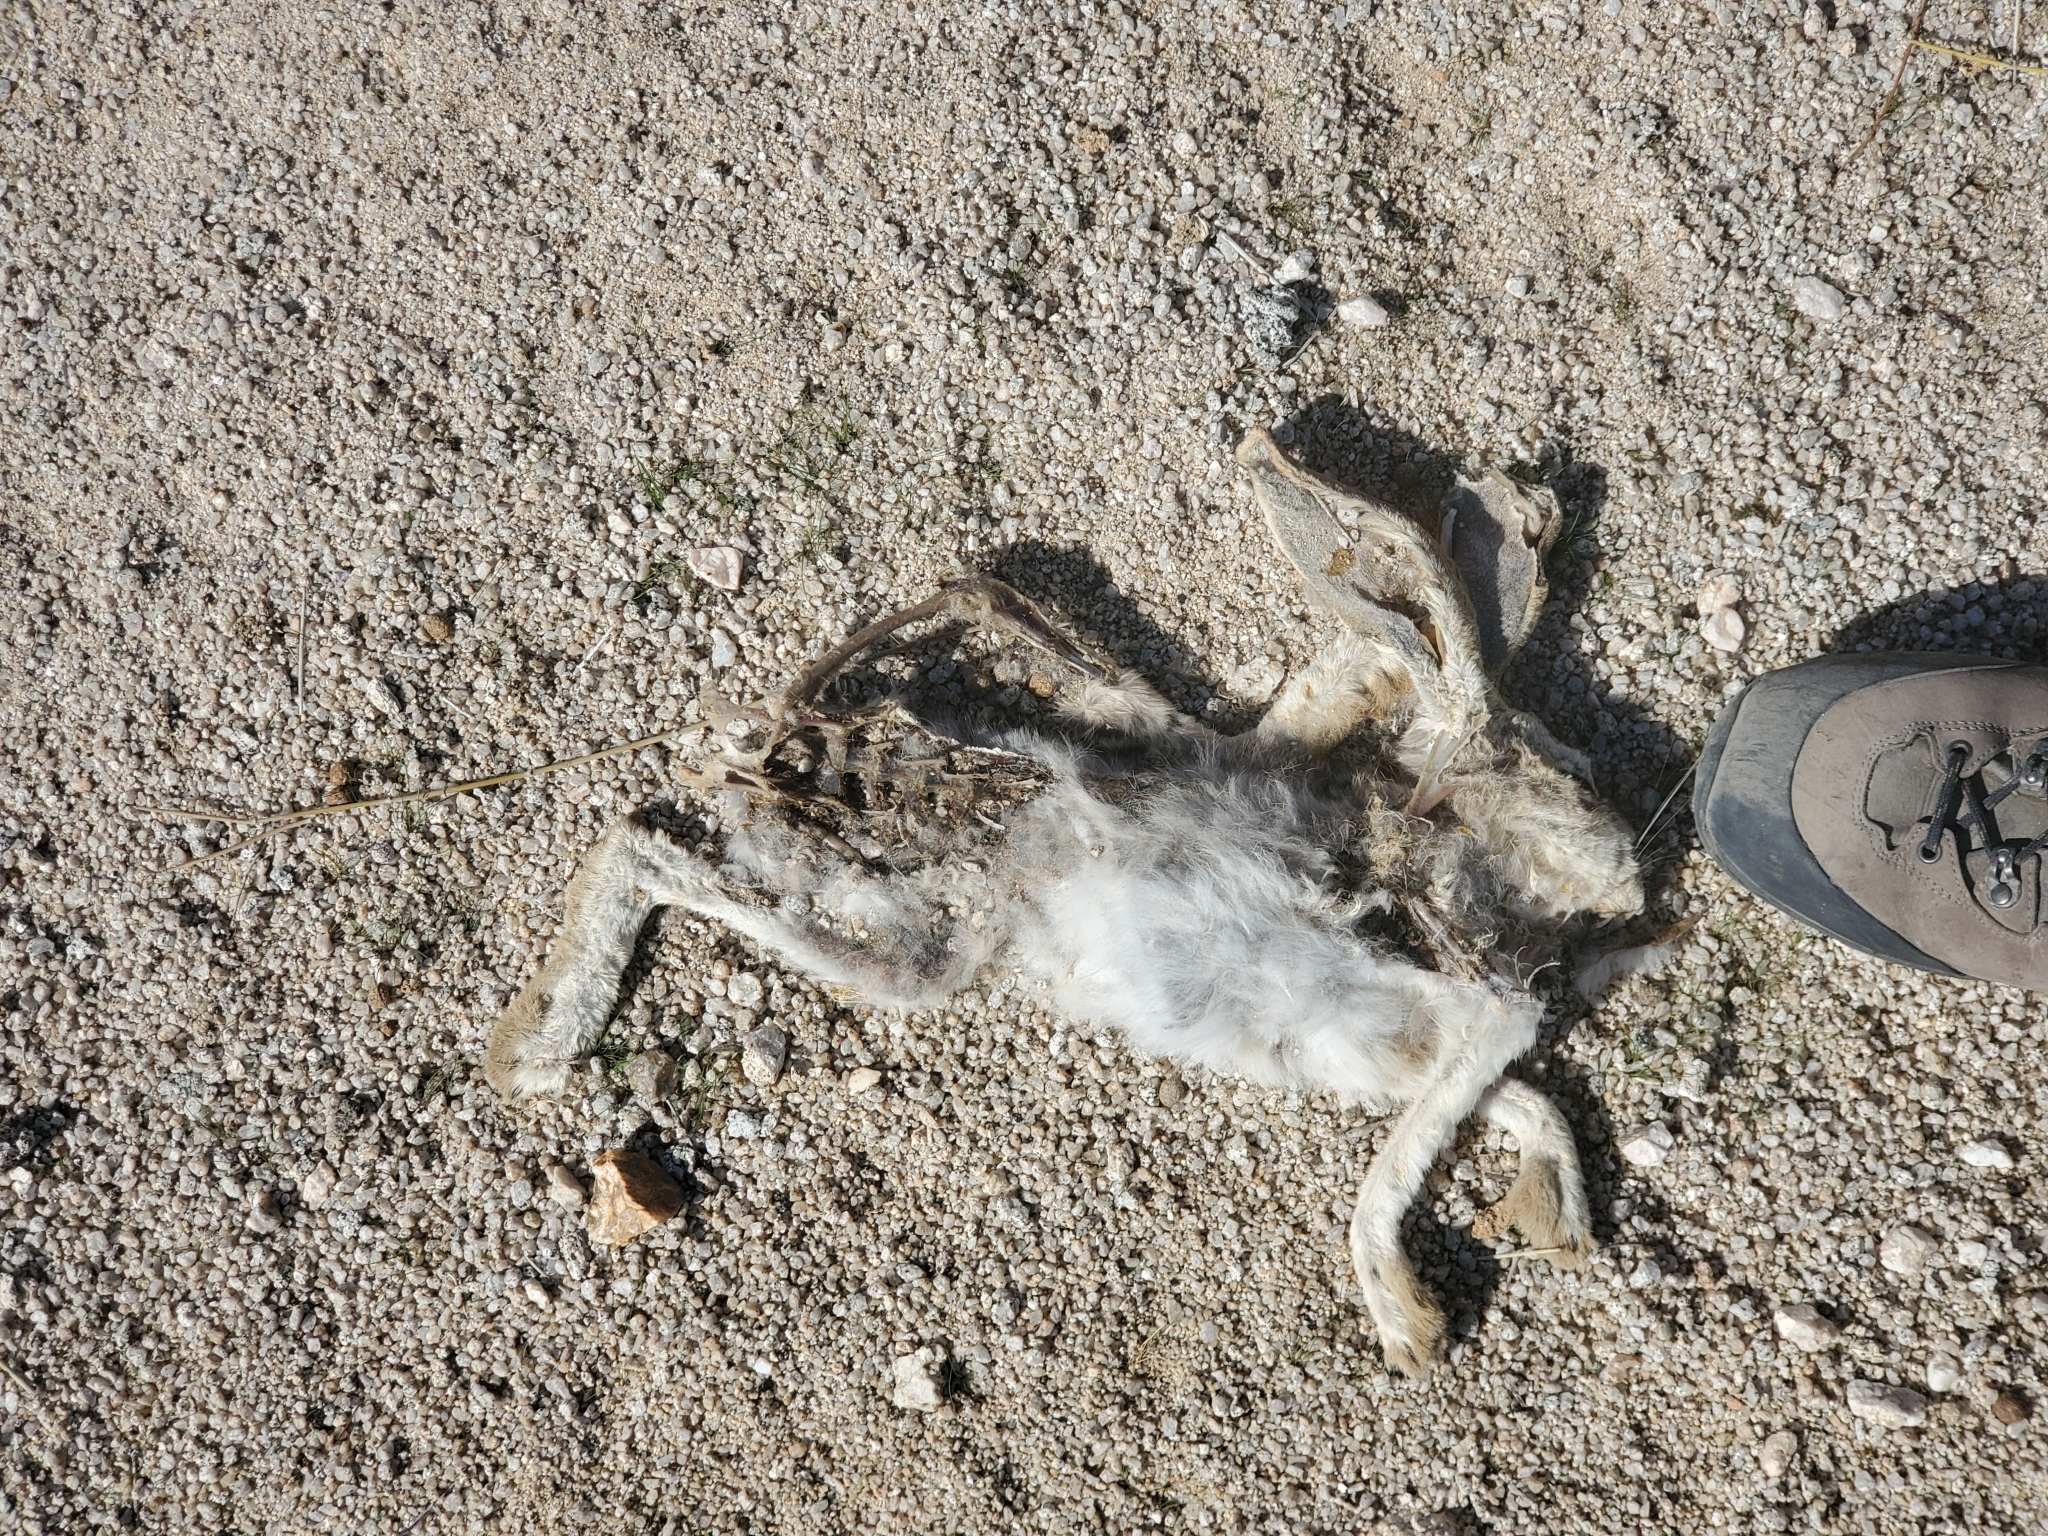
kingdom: Animalia
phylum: Chordata
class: Mammalia
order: Lagomorpha
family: Leporidae
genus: Lepus
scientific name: Lepus californicus
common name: Black-tailed jackrabbit
